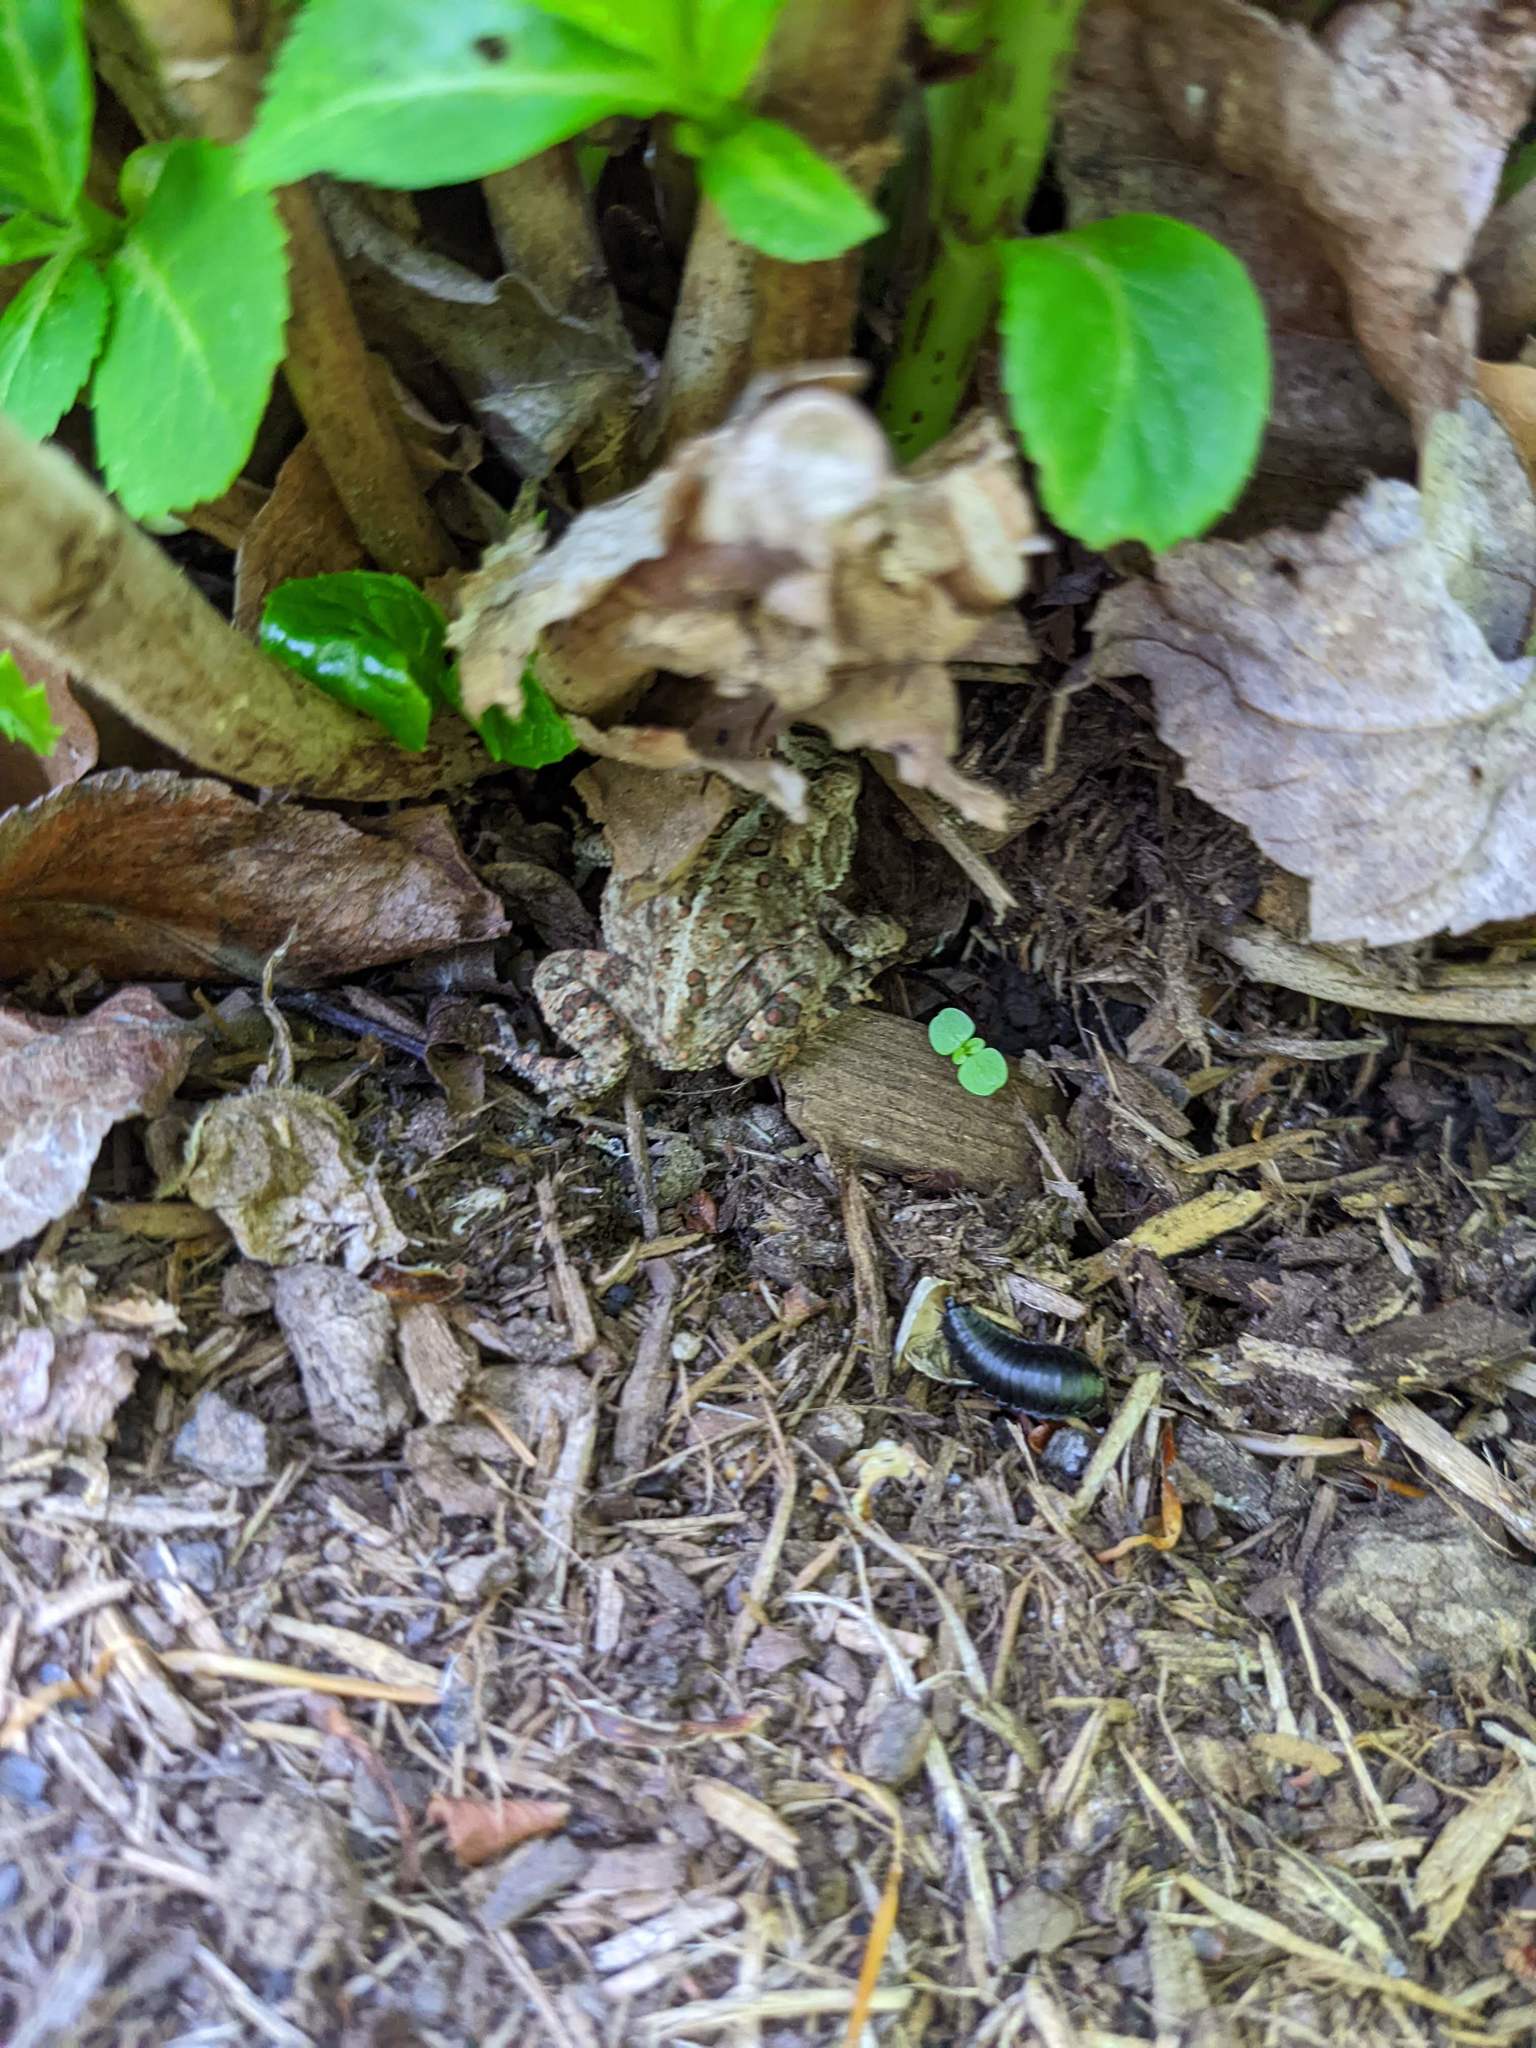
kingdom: Animalia
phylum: Chordata
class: Amphibia
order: Anura
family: Bufonidae
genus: Anaxyrus
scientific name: Anaxyrus americanus
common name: American toad
